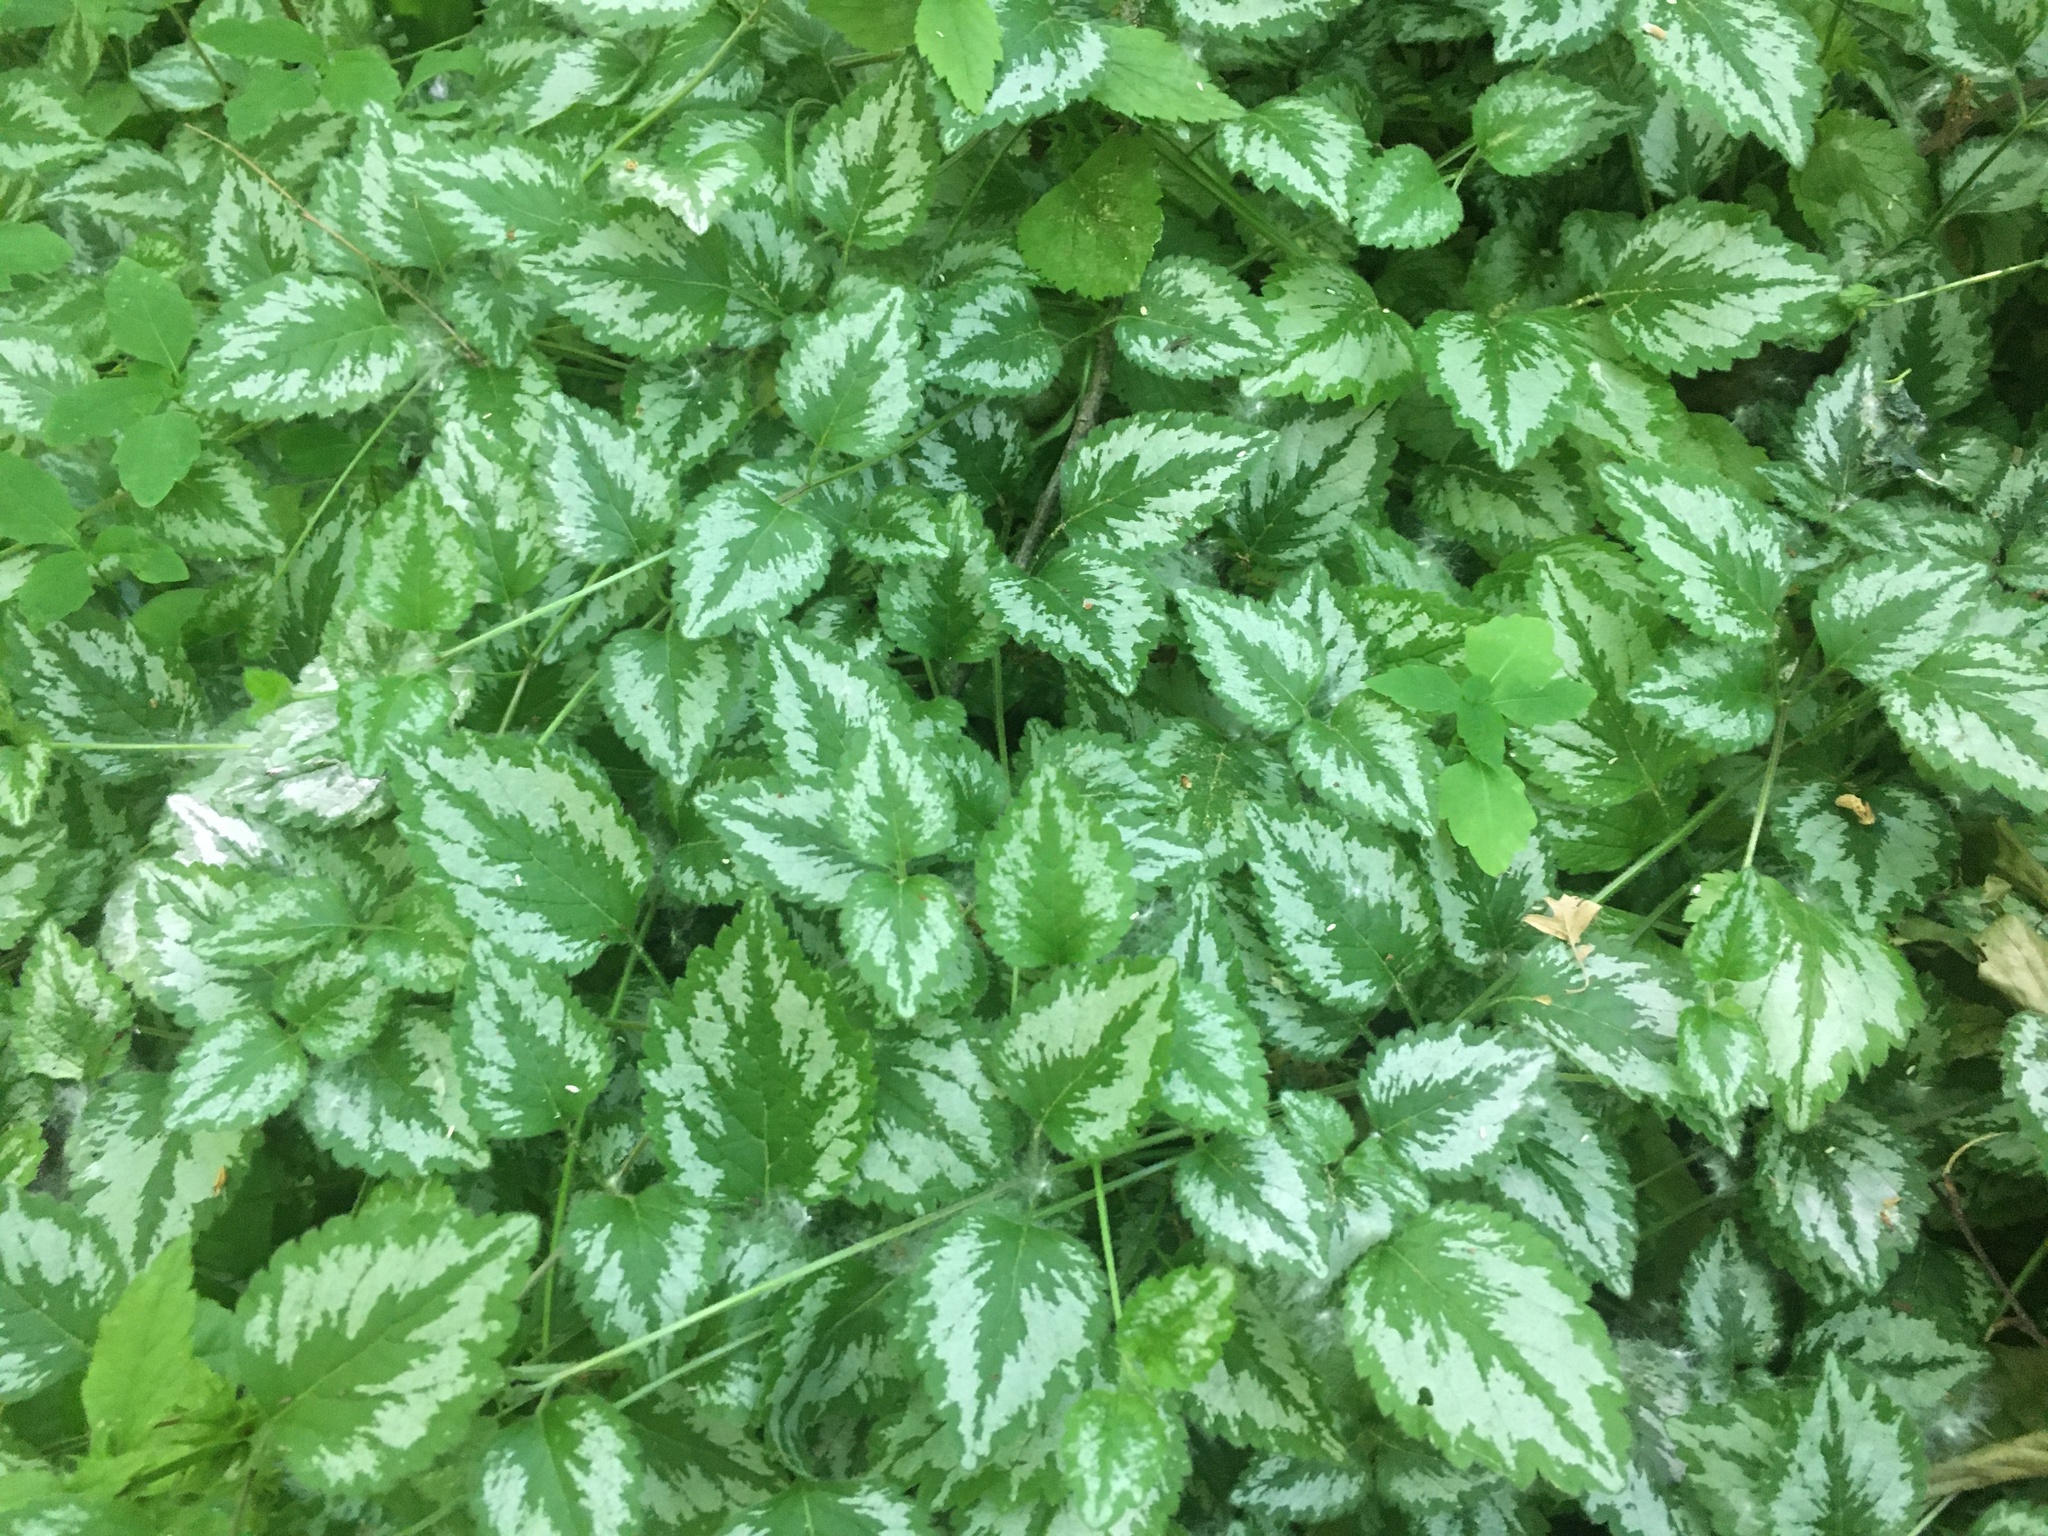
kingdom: Plantae
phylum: Tracheophyta
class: Magnoliopsida
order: Lamiales
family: Lamiaceae
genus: Lamium
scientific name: Lamium galeobdolon
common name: Yellow archangel
